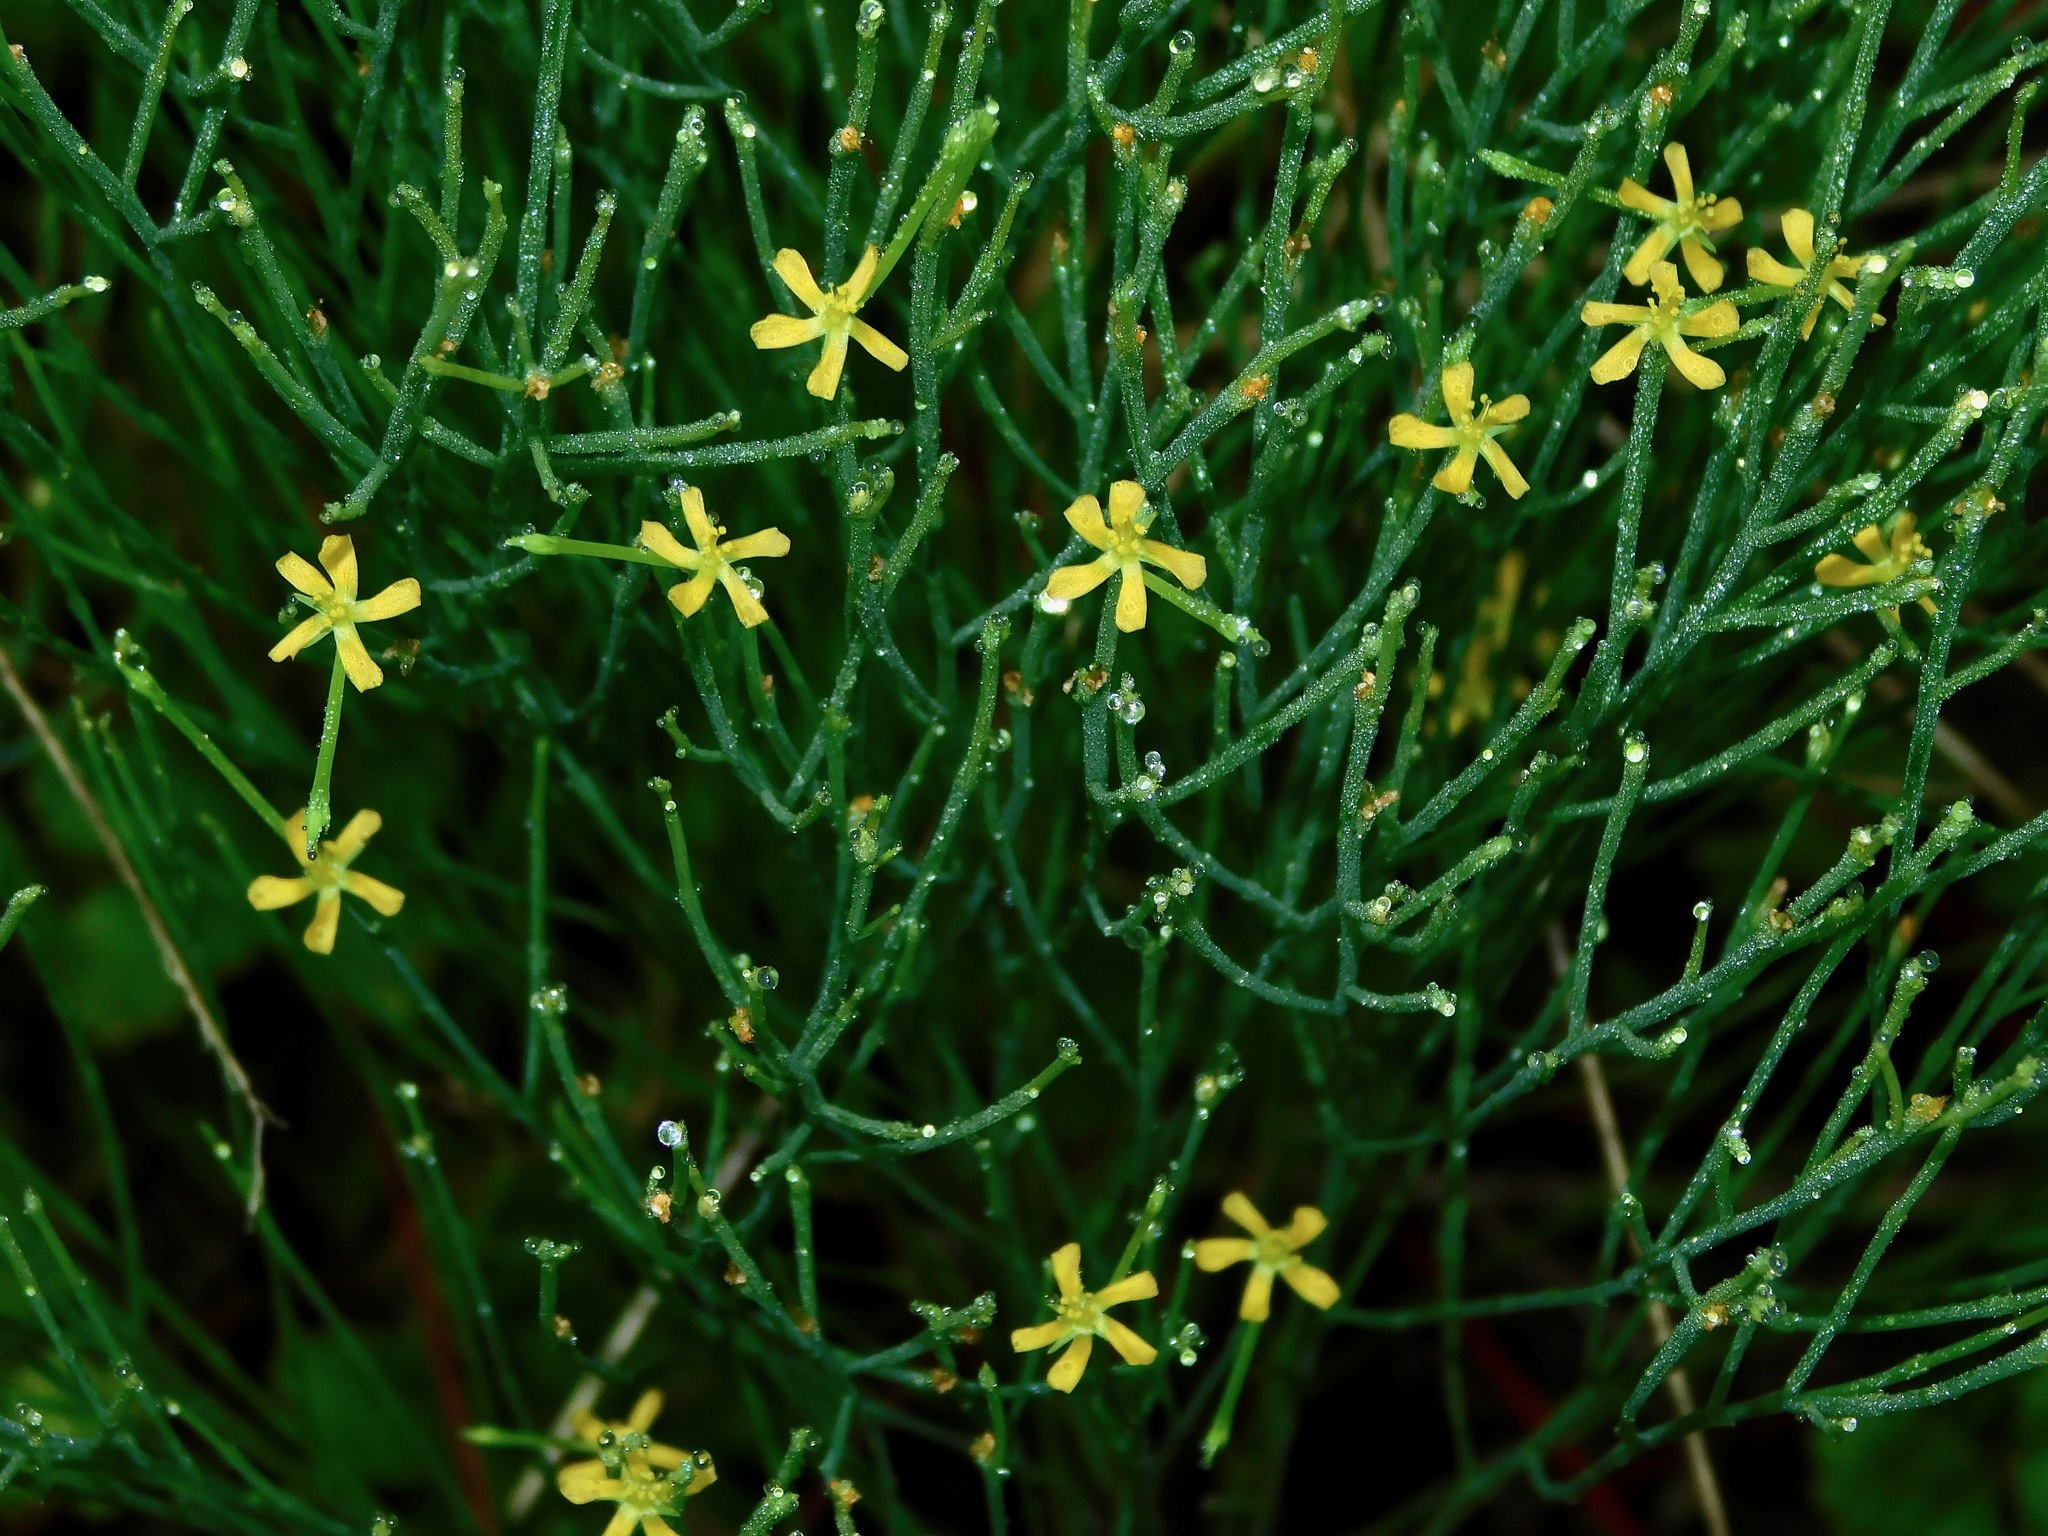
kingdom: Plantae
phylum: Tracheophyta
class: Magnoliopsida
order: Malpighiales
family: Hypericaceae
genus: Hypericum
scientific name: Hypericum gentianoides
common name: Gentian-leaved st. john's-wort
